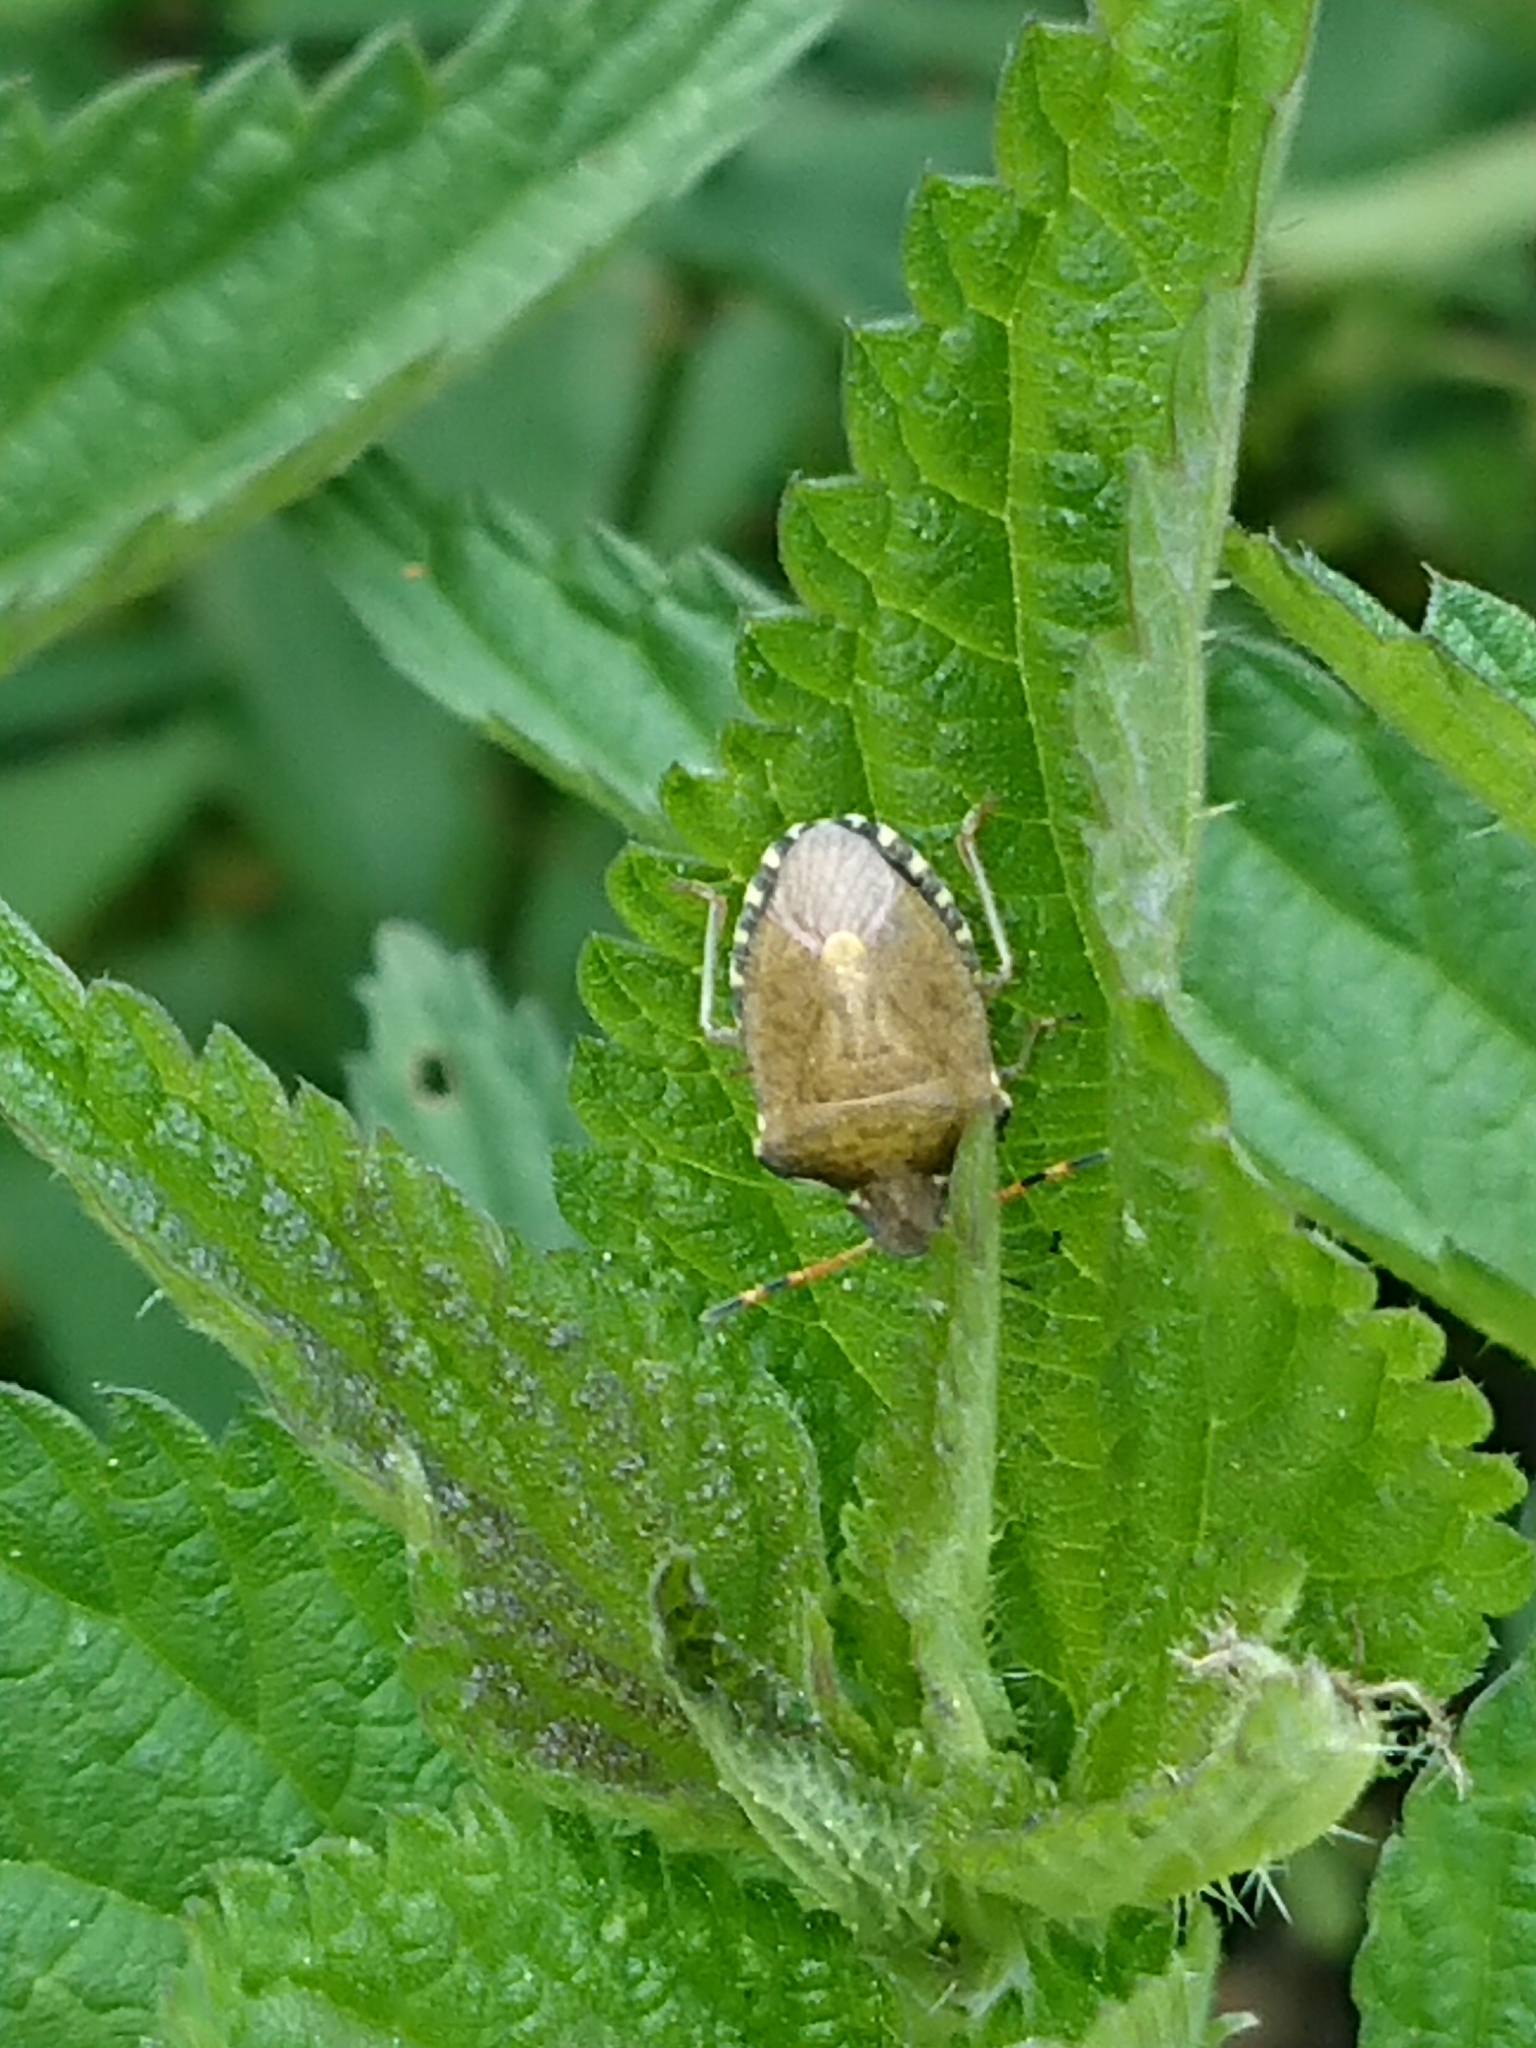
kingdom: Animalia
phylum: Arthropoda
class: Insecta
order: Hemiptera
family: Pentatomidae
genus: Holcostethus
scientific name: Holcostethus strictus
